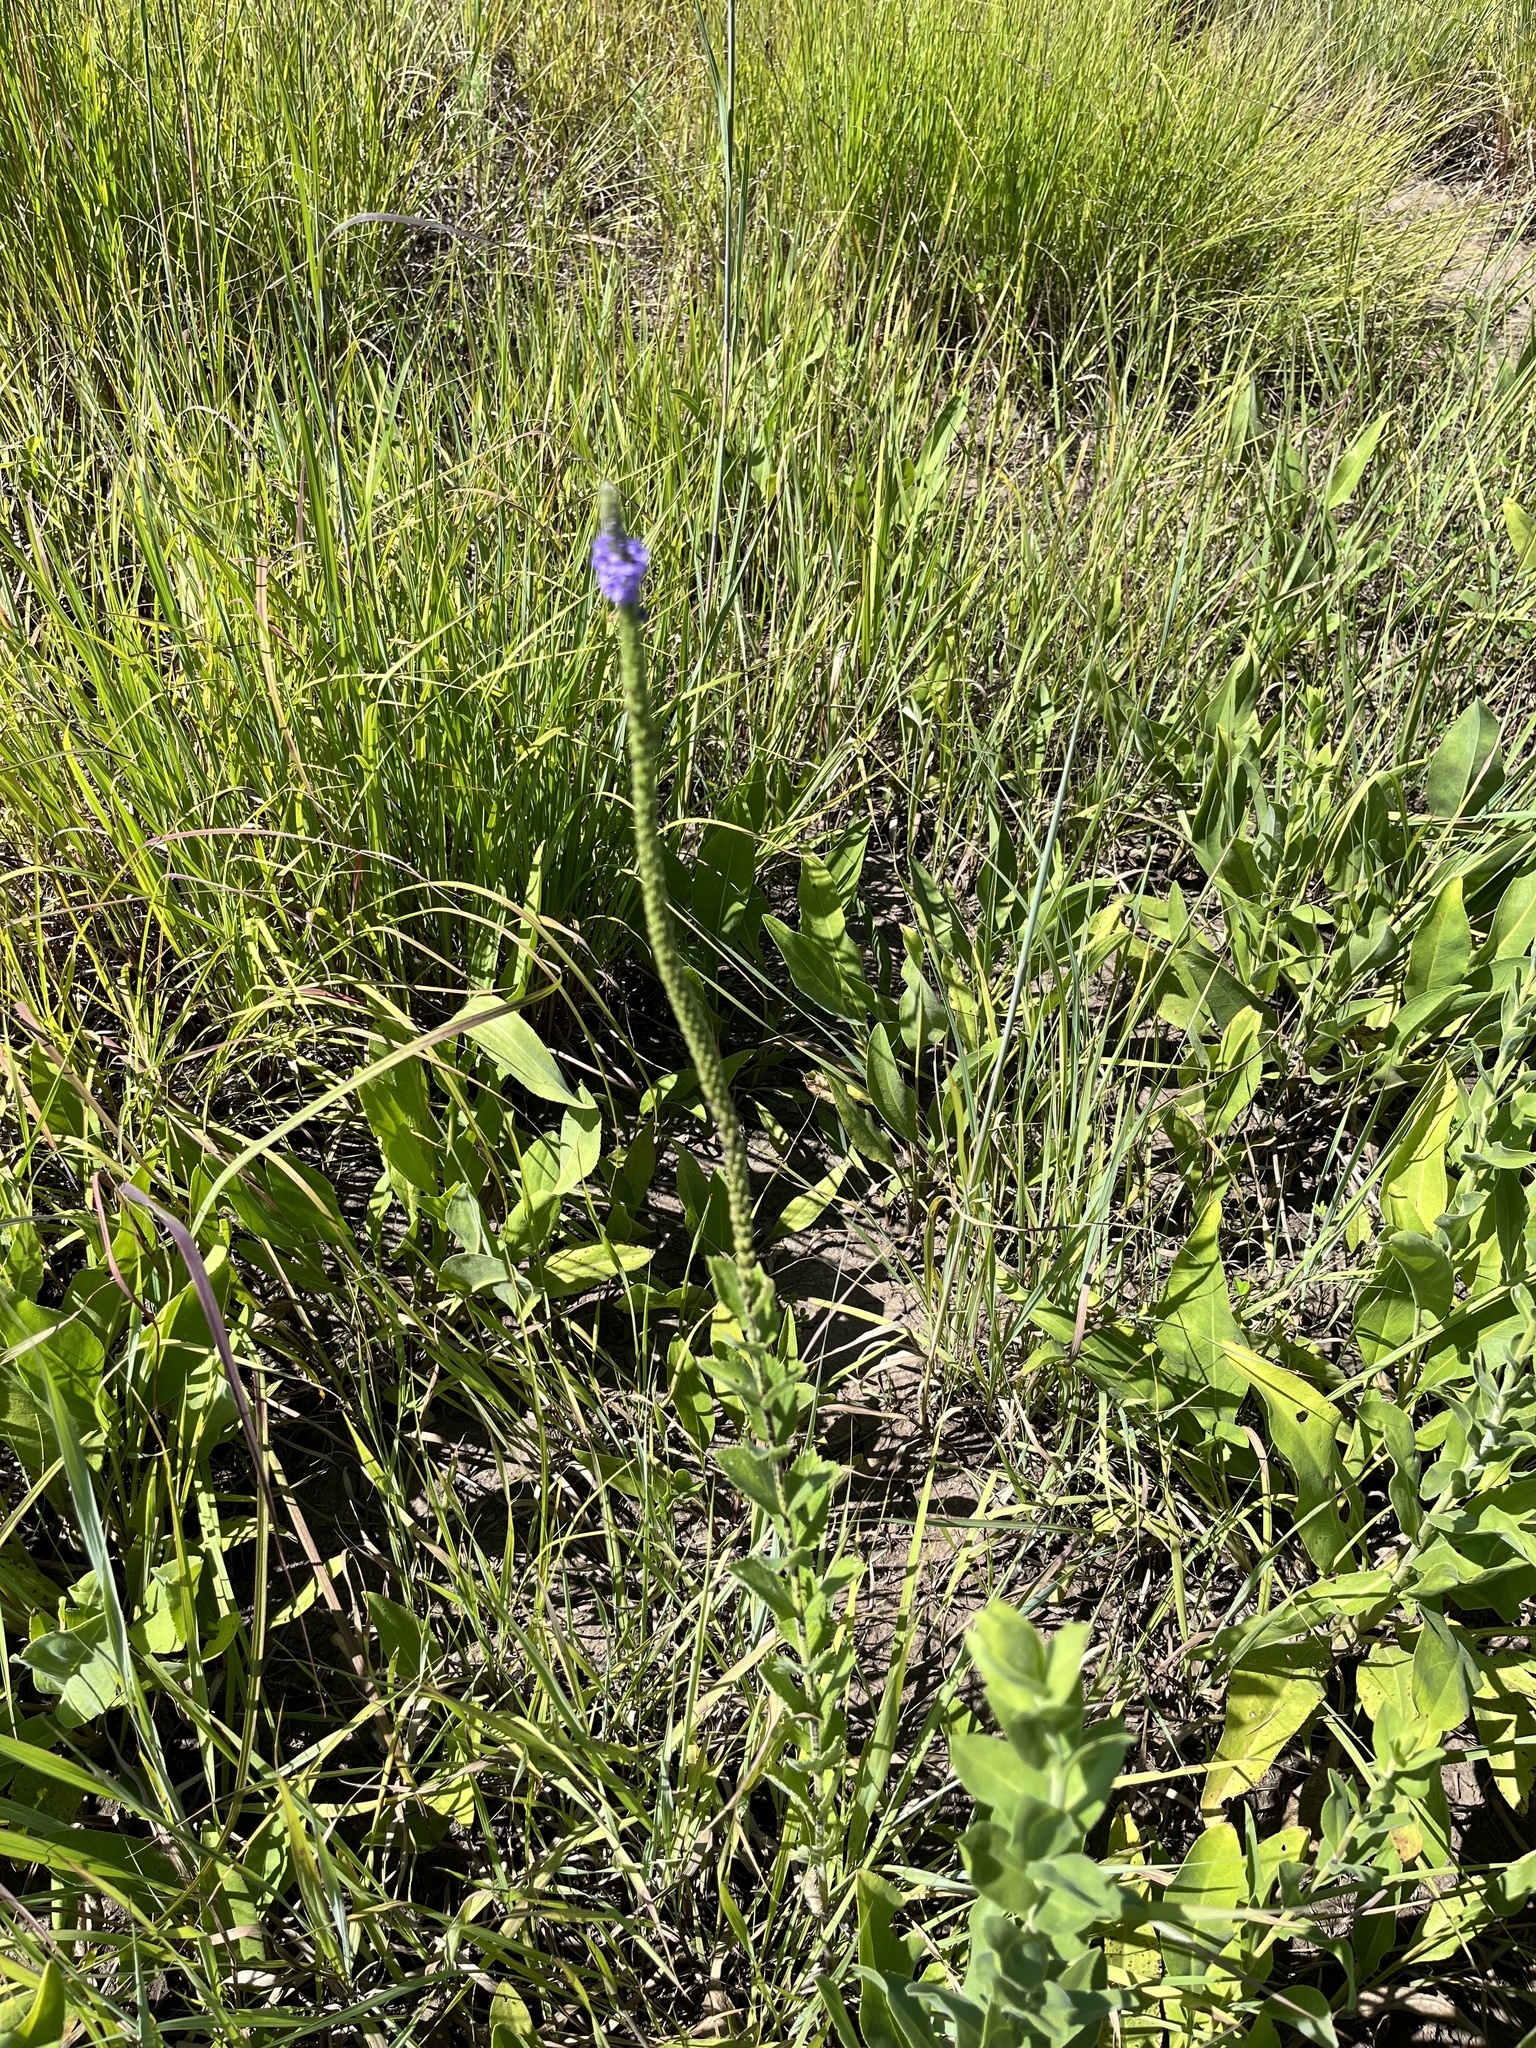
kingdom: Plantae
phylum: Tracheophyta
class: Magnoliopsida
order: Lamiales
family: Verbenaceae
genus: Verbena
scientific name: Verbena stricta
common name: Hoary vervain
